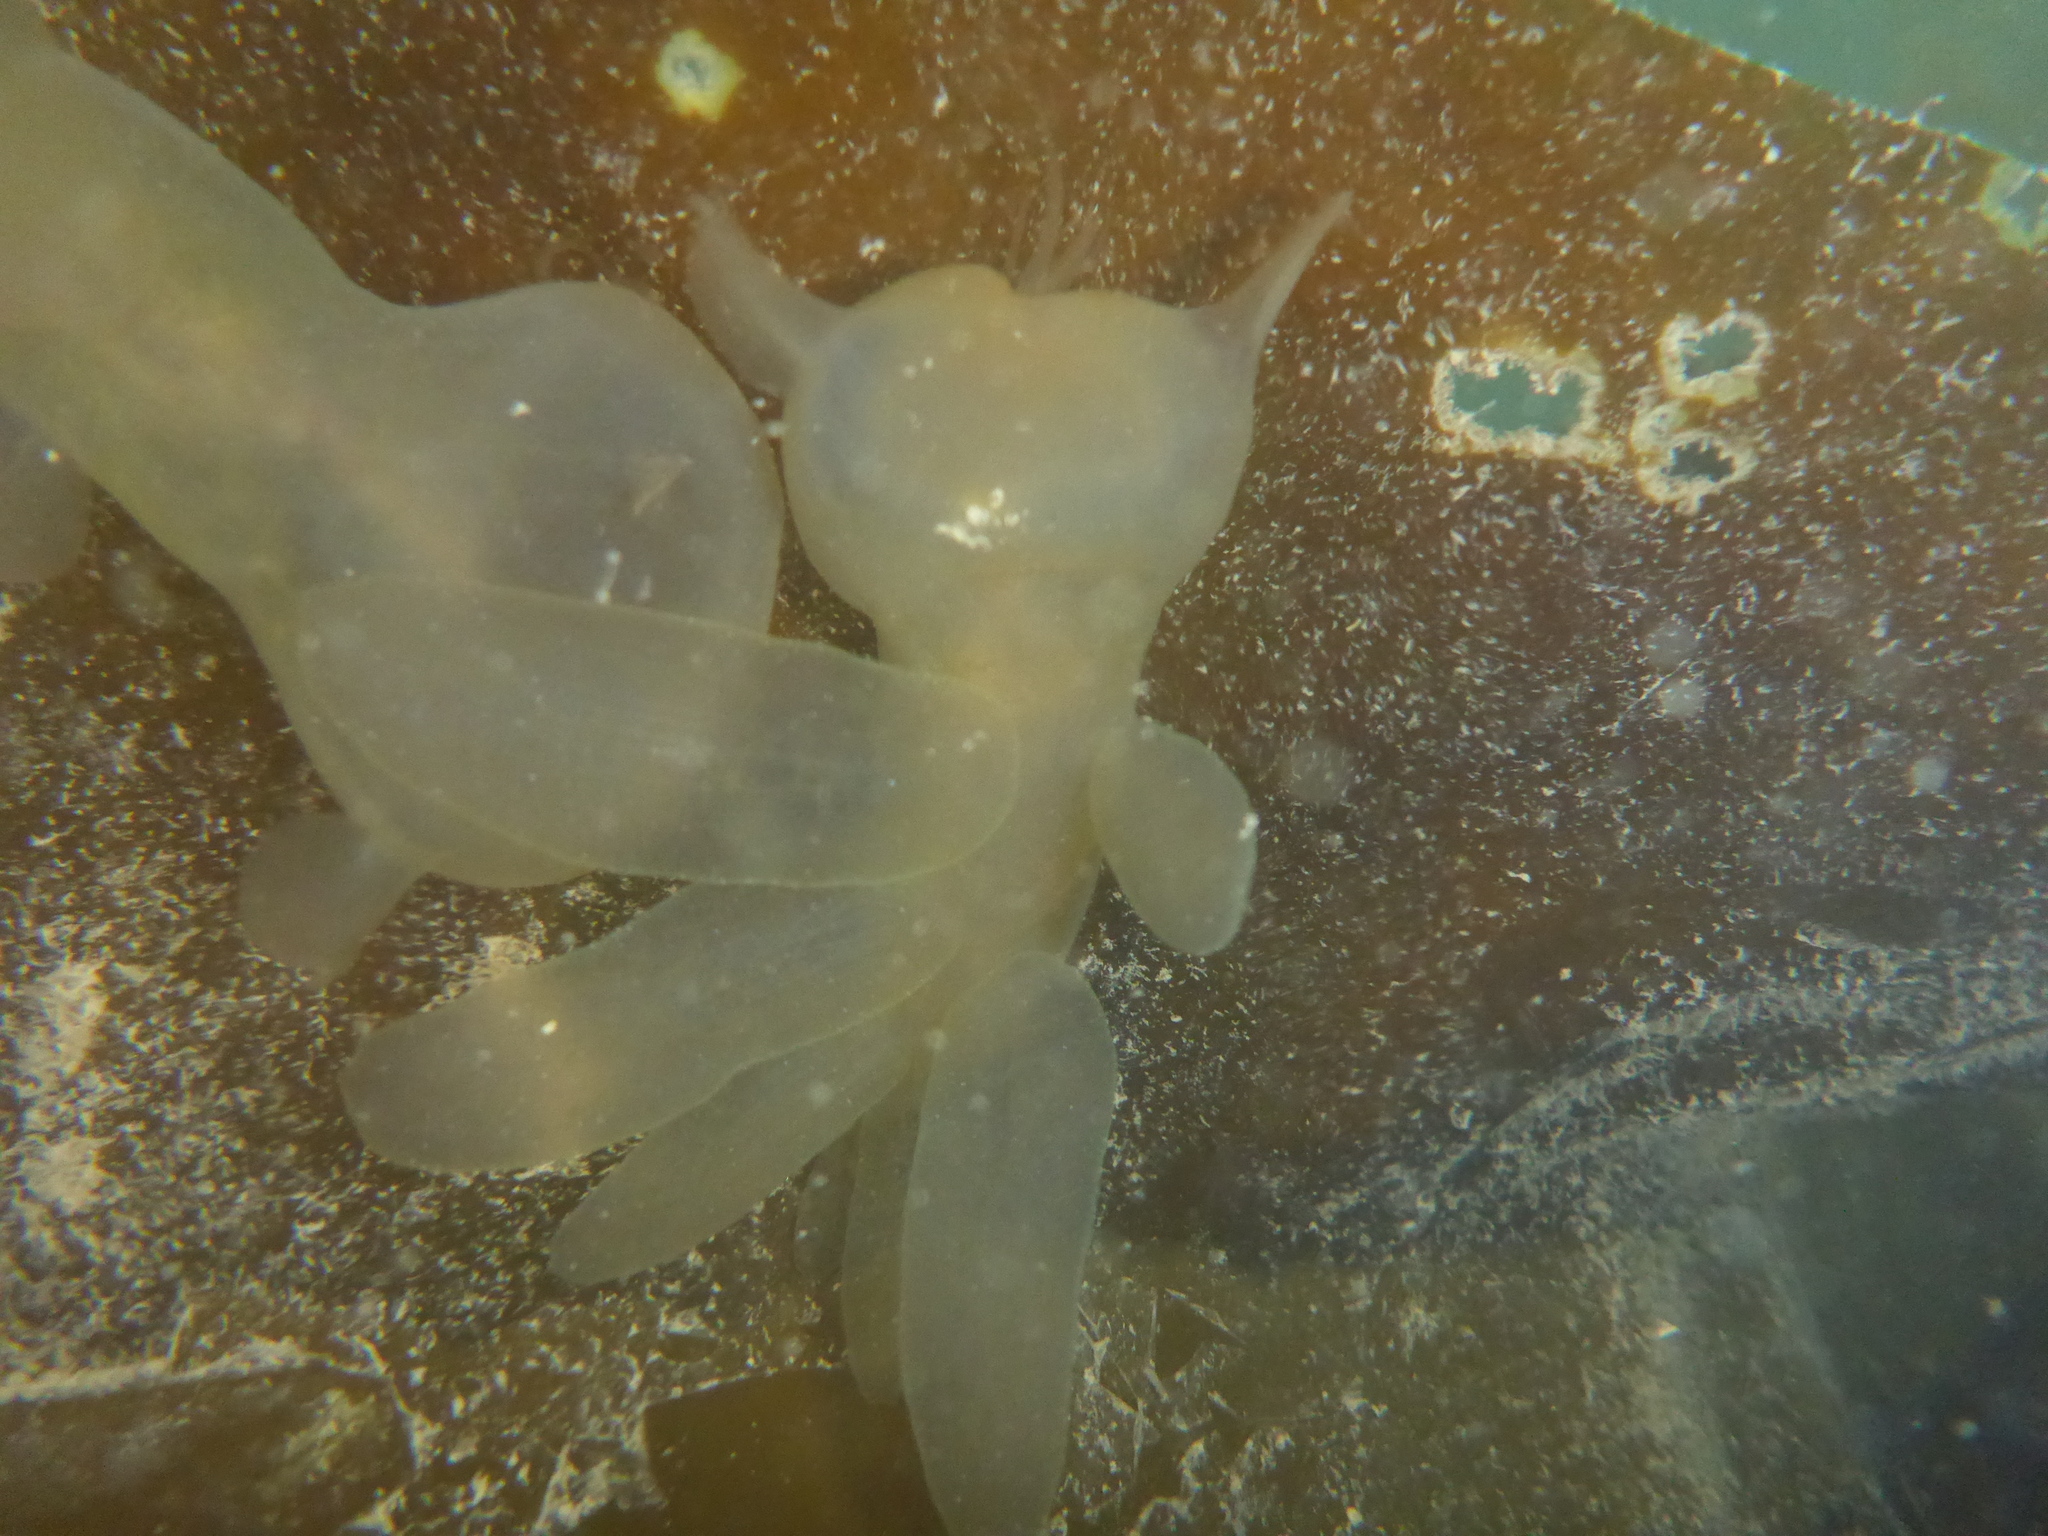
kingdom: Animalia
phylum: Mollusca
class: Gastropoda
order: Nudibranchia
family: Tethydidae
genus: Melibe
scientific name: Melibe leonina
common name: Lion nudibranch
